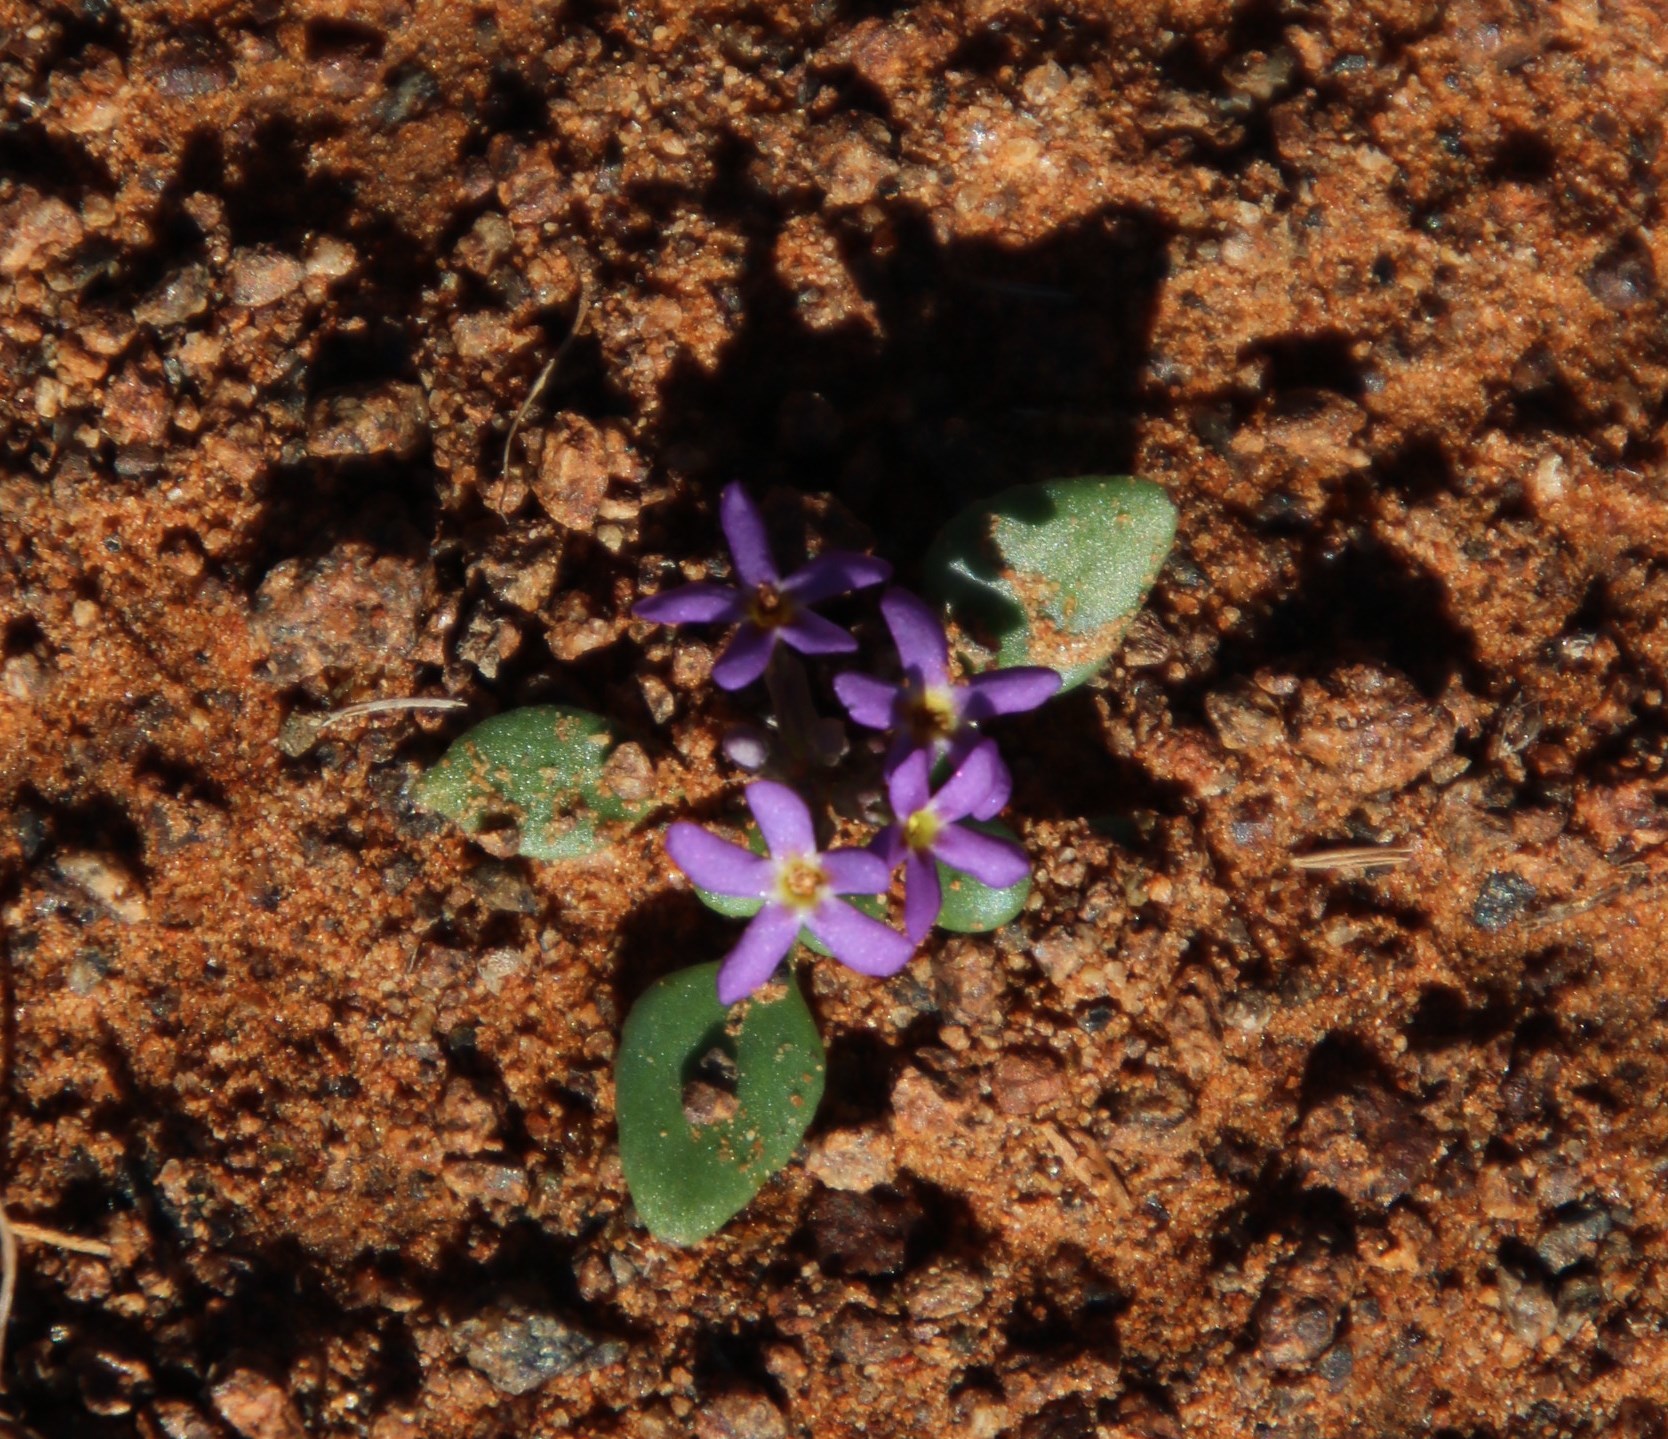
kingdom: Plantae
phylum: Tracheophyta
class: Magnoliopsida
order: Lamiales
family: Scrophulariaceae
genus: Manulea
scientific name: Manulea fragrans
